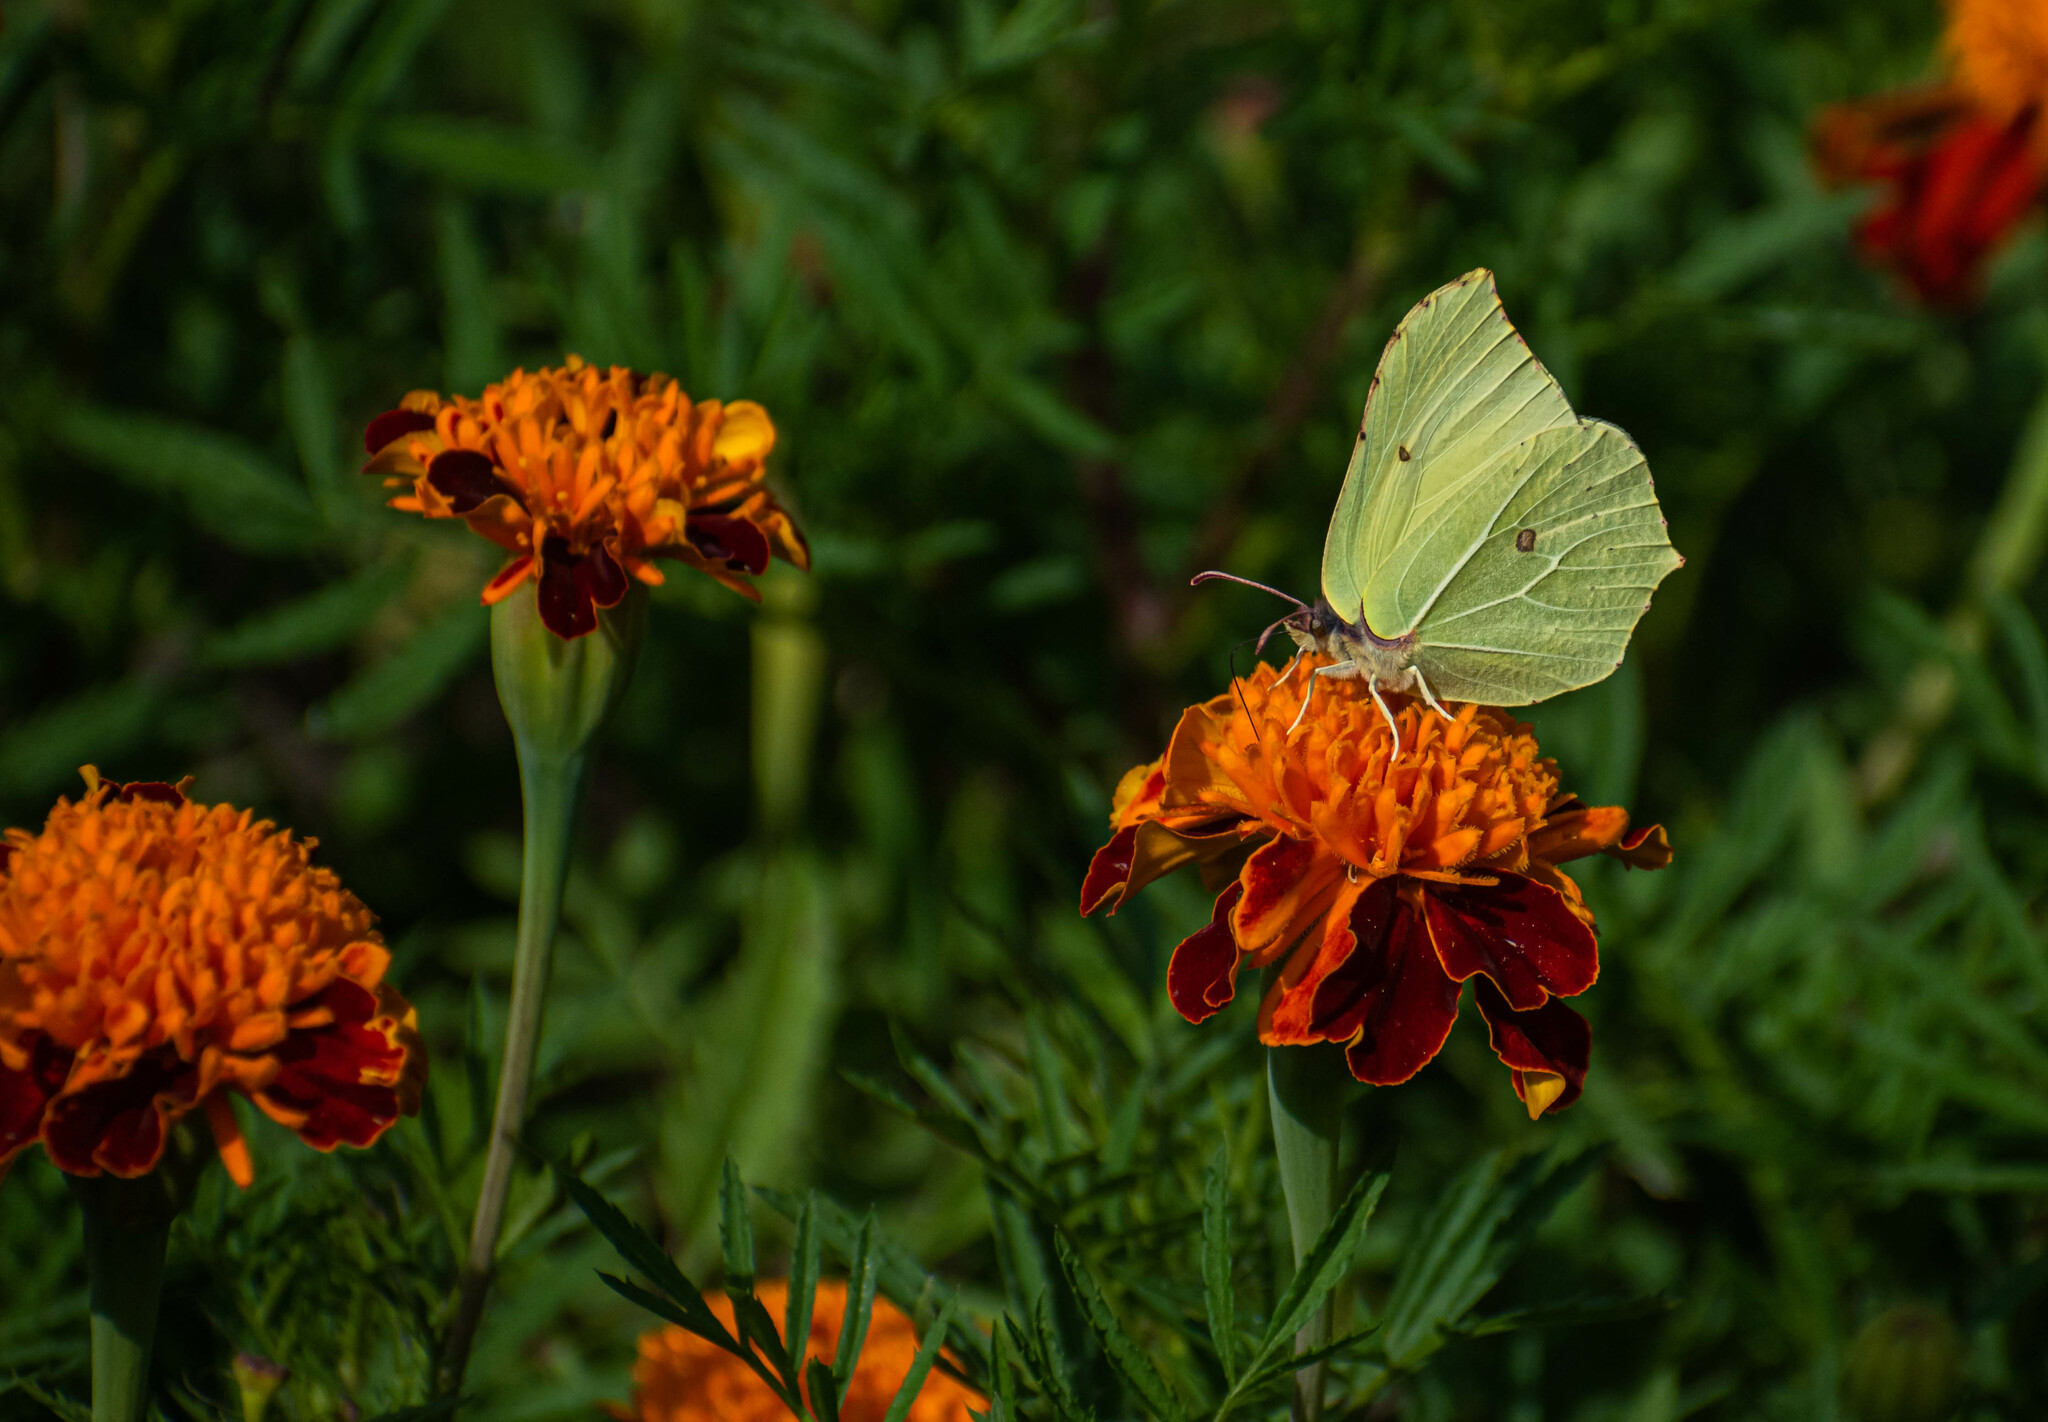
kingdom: Animalia
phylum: Arthropoda
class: Insecta
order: Lepidoptera
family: Pieridae
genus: Gonepteryx
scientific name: Gonepteryx rhamni
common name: Brimstone
